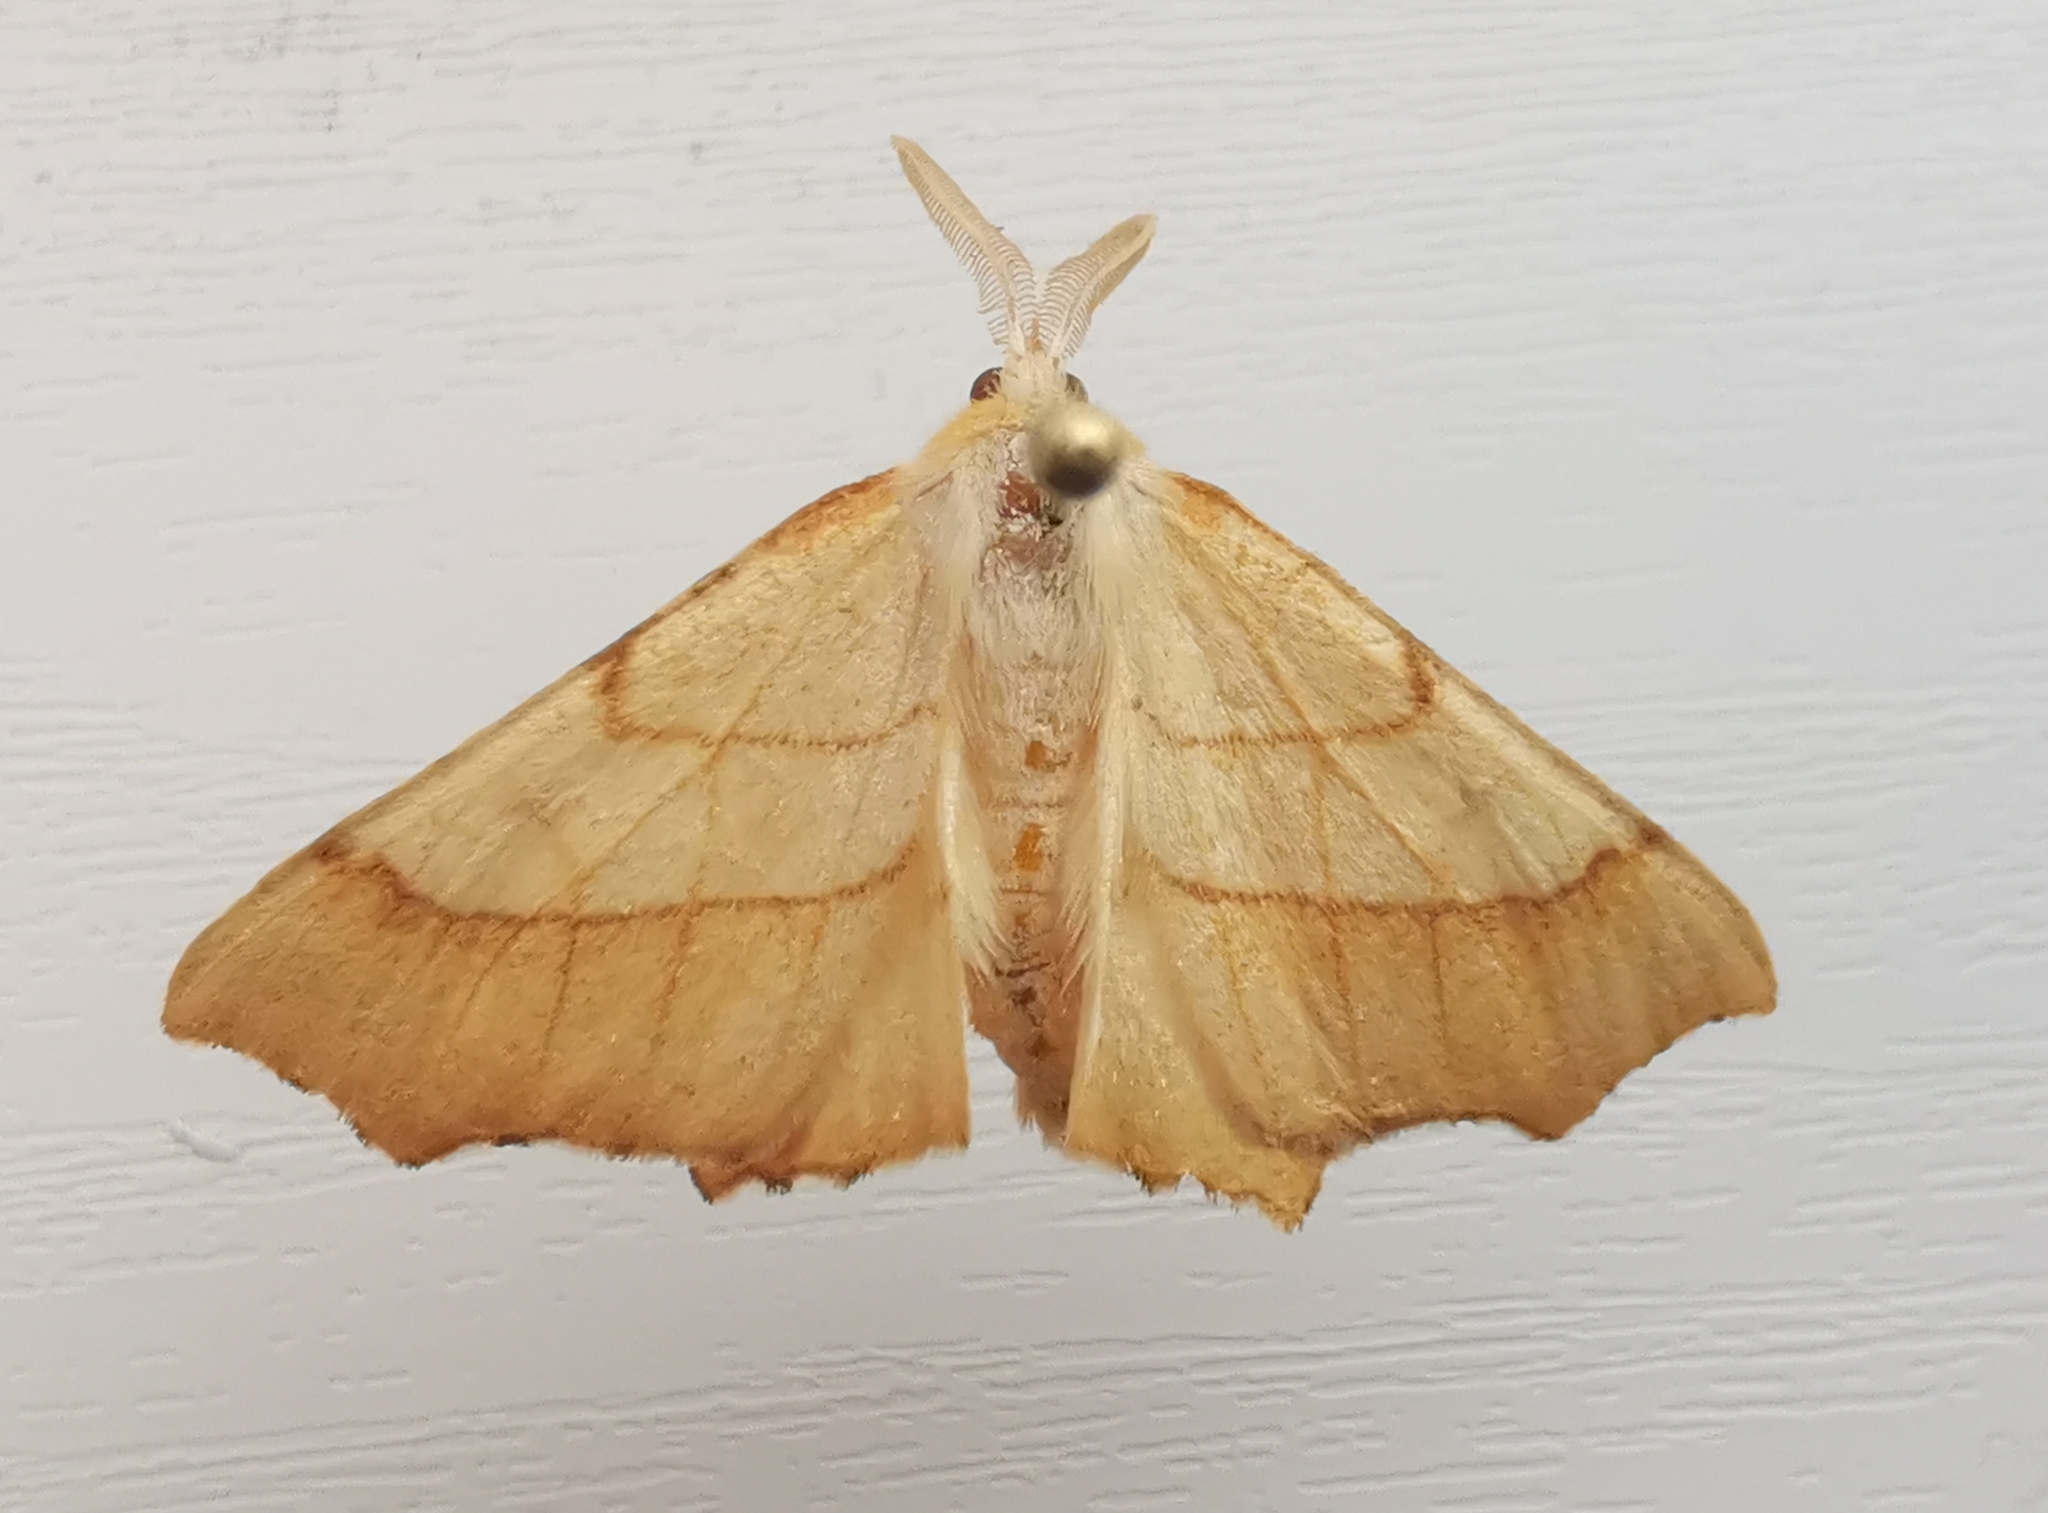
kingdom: Animalia
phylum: Arthropoda
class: Insecta
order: Lepidoptera
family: Geometridae
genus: Ennomos
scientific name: Ennomos quercinaria
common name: August thorn
